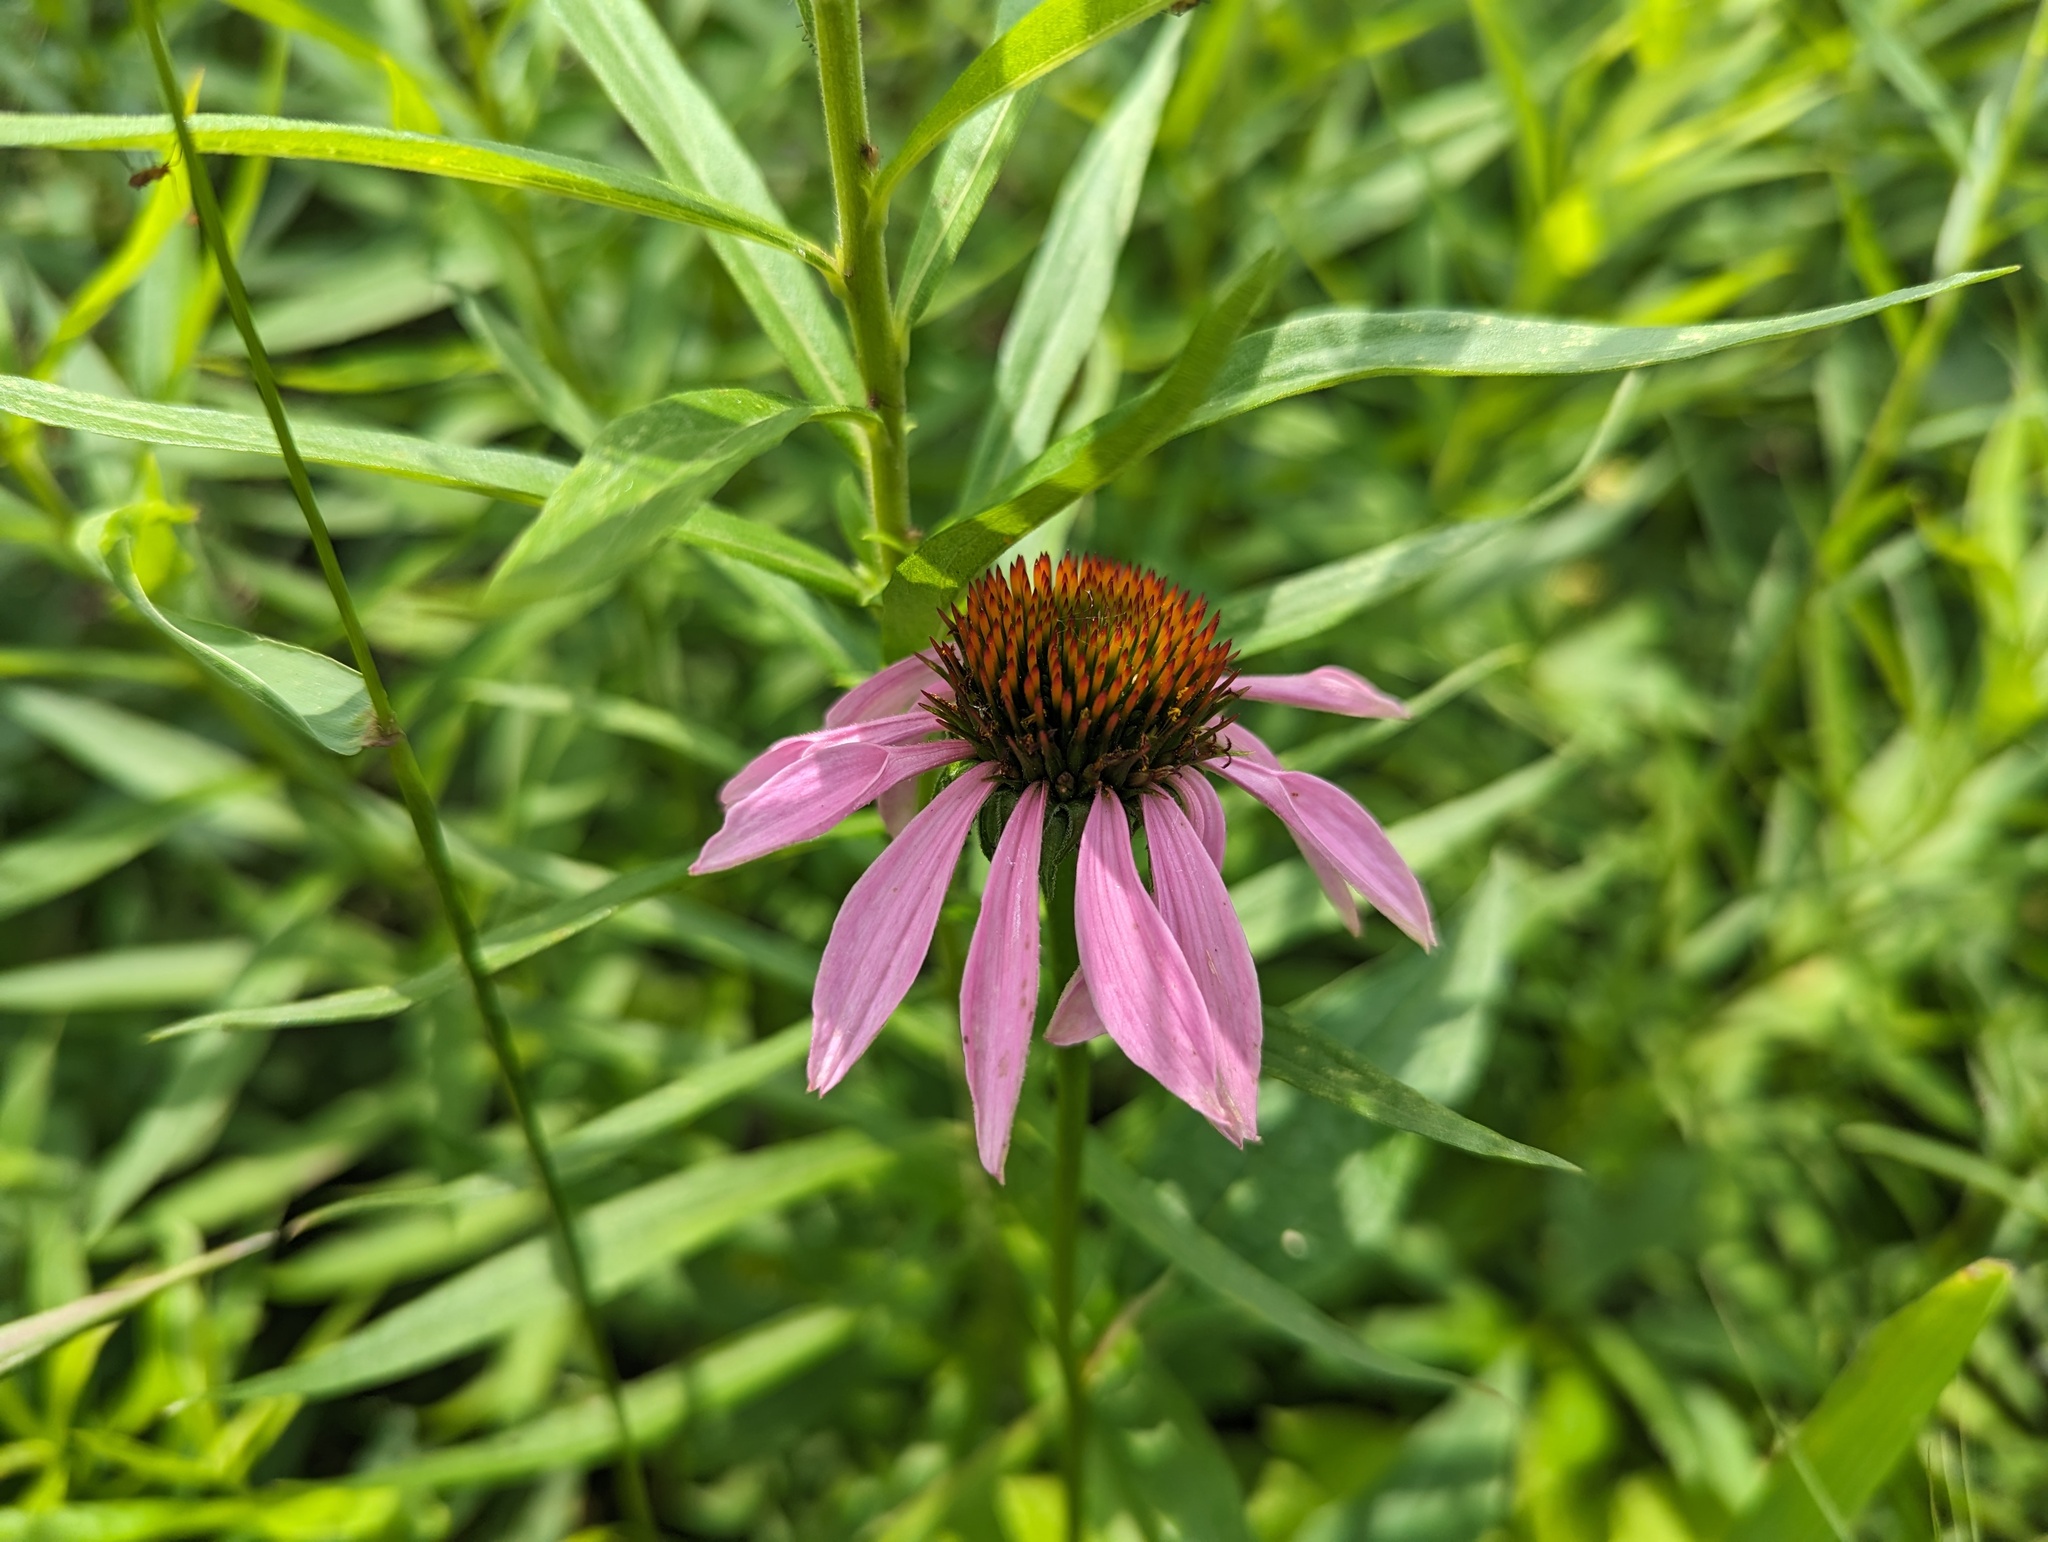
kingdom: Plantae
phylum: Tracheophyta
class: Magnoliopsida
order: Asterales
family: Asteraceae
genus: Echinacea
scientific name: Echinacea purpurea
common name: Broad-leaved purple coneflower
